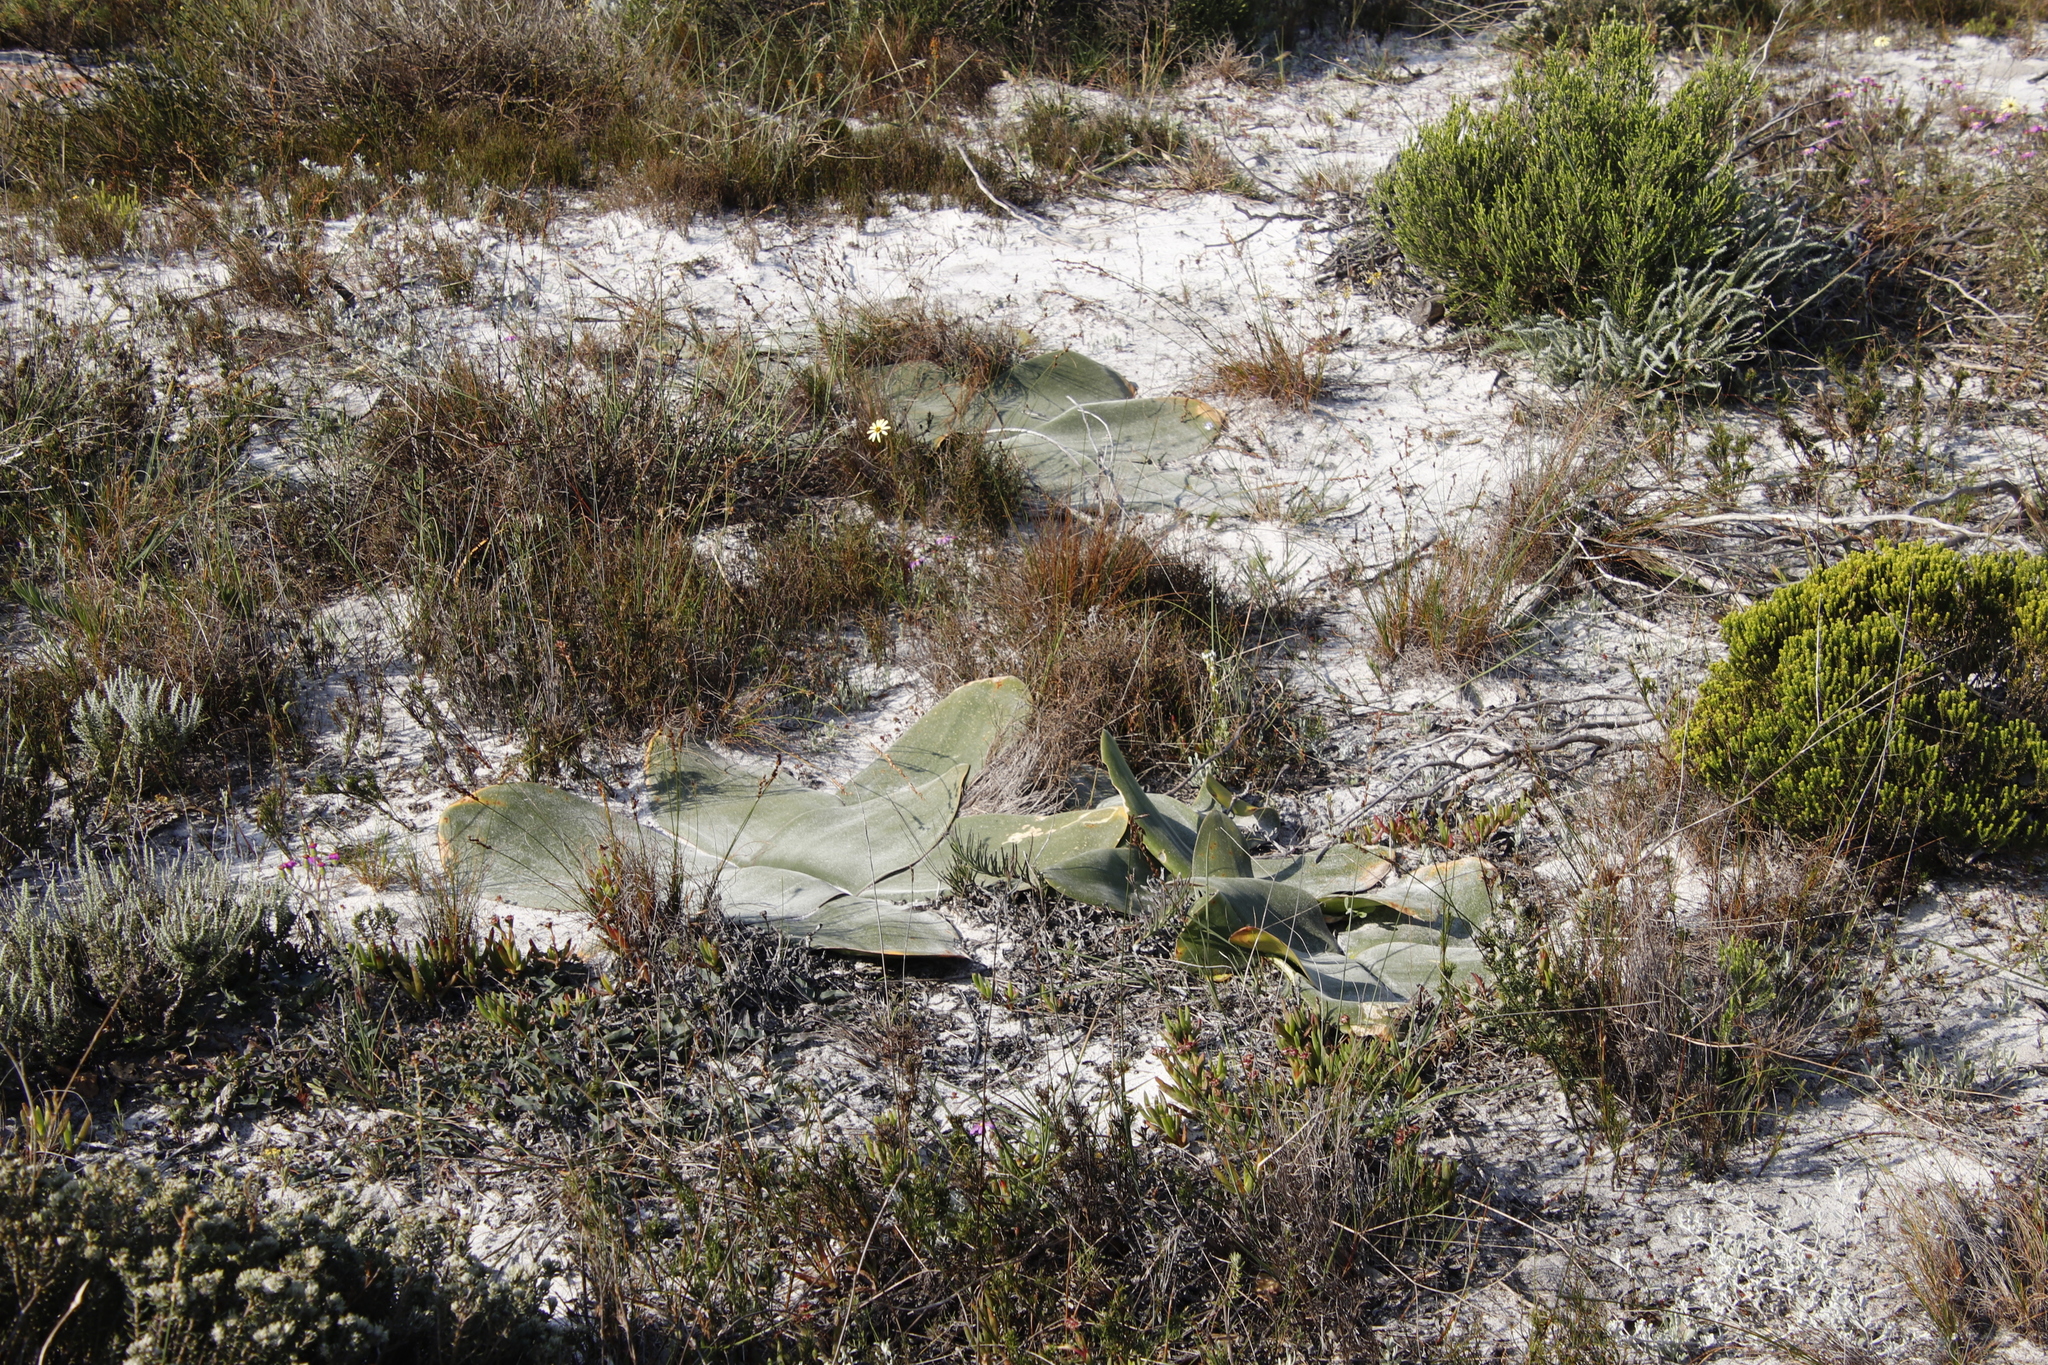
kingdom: Plantae
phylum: Tracheophyta
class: Liliopsida
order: Asparagales
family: Amaryllidaceae
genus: Brunsvigia
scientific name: Brunsvigia orientalis
